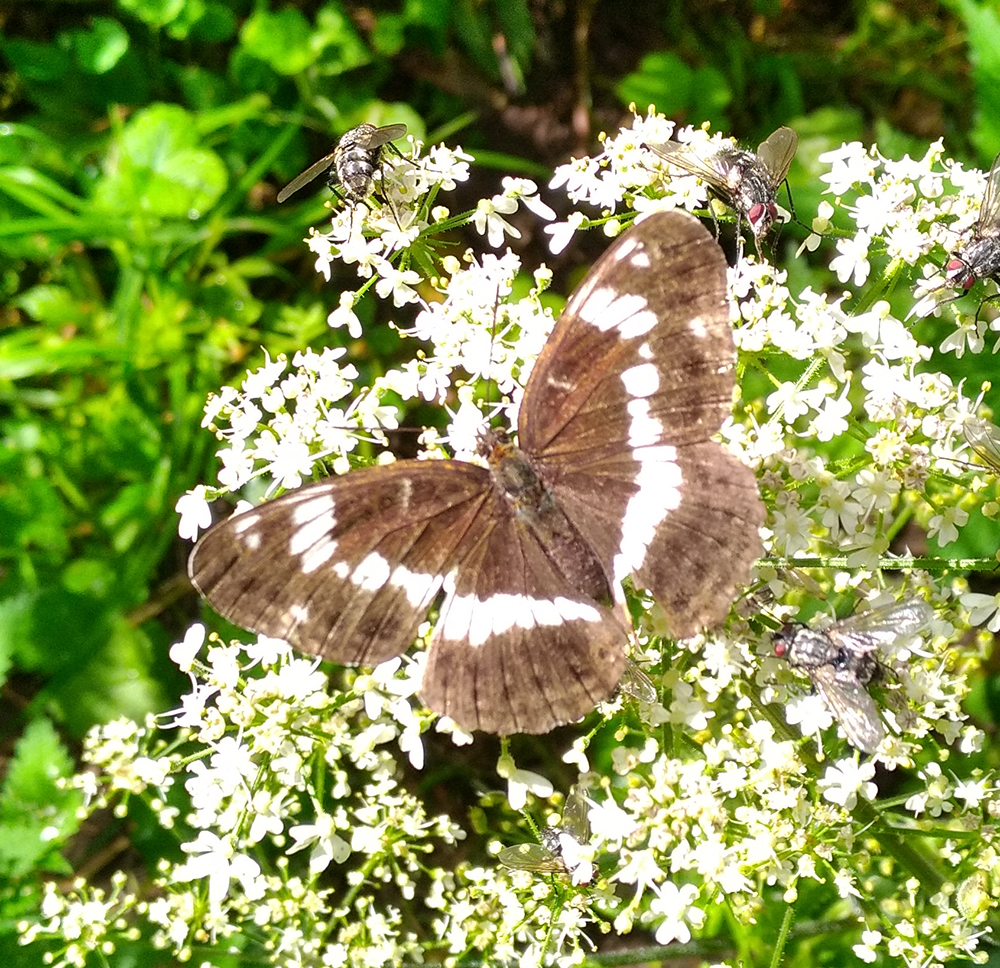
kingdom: Animalia
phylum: Arthropoda
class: Insecta
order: Lepidoptera
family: Nymphalidae
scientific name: Nymphalidae
